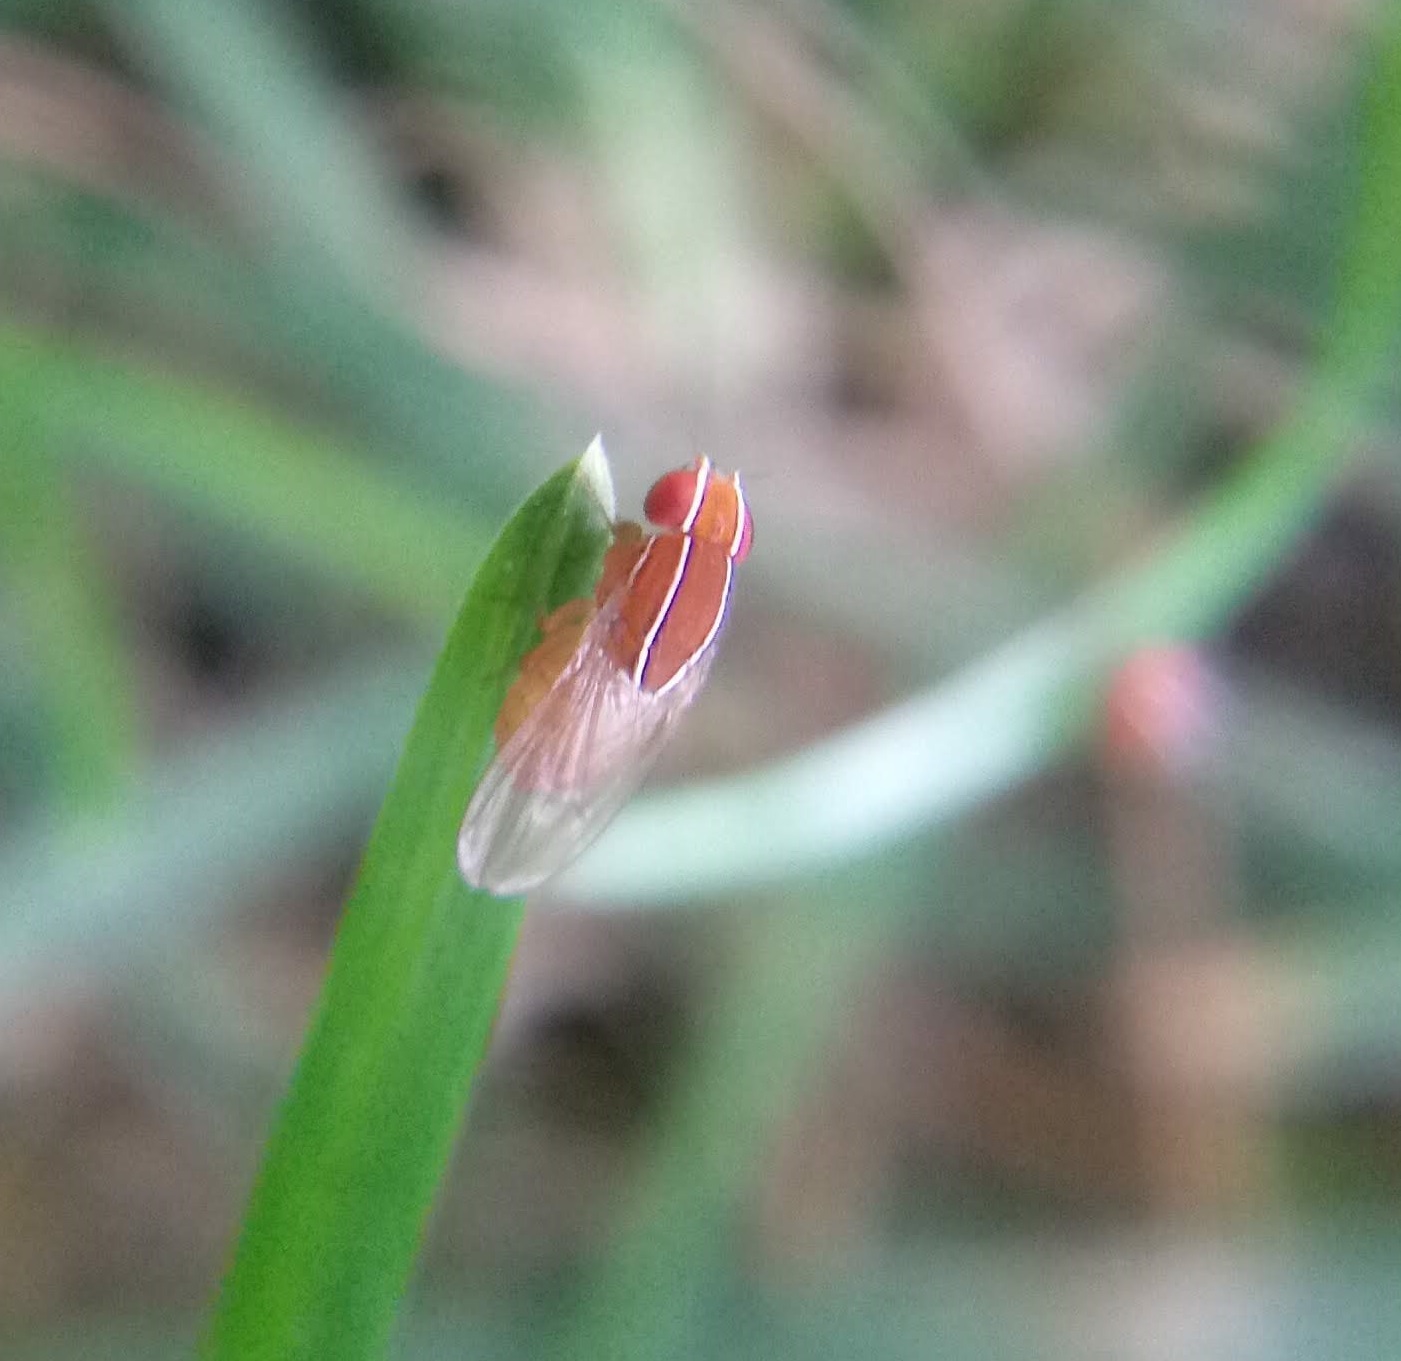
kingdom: Animalia
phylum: Arthropoda
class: Insecta
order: Diptera
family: Drosophilidae
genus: Zaprionus
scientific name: Zaprionus indianus
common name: African fig fly
